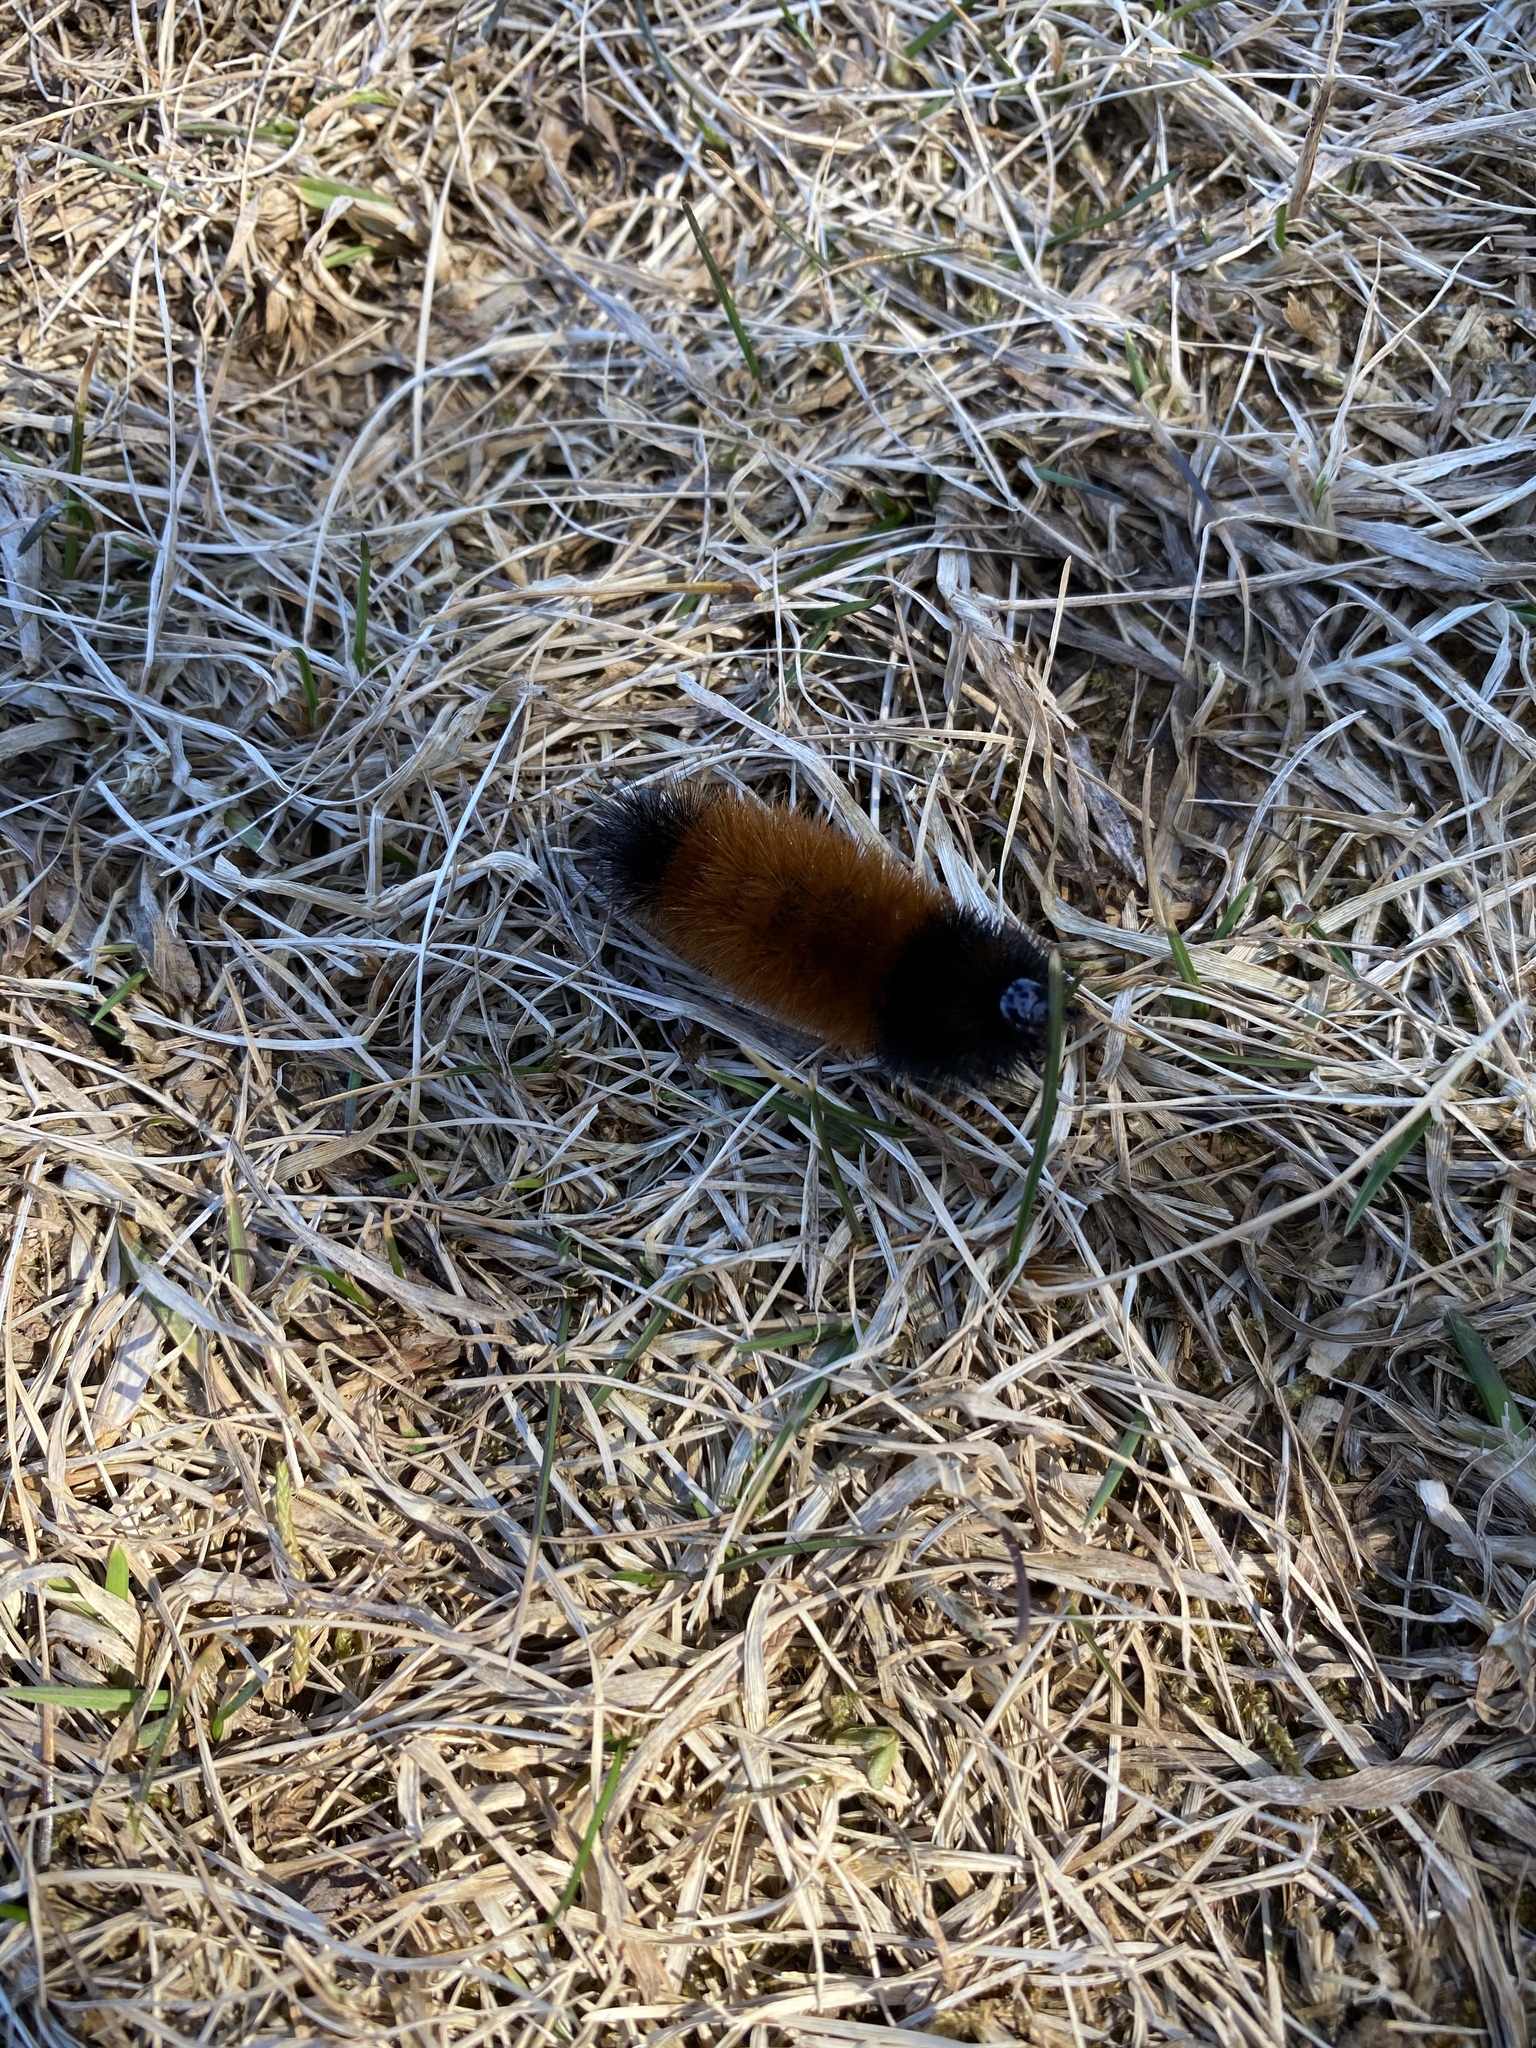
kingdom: Animalia
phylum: Arthropoda
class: Insecta
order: Lepidoptera
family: Erebidae
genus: Pyrrharctia
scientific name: Pyrrharctia isabella
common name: Isabella tiger moth
